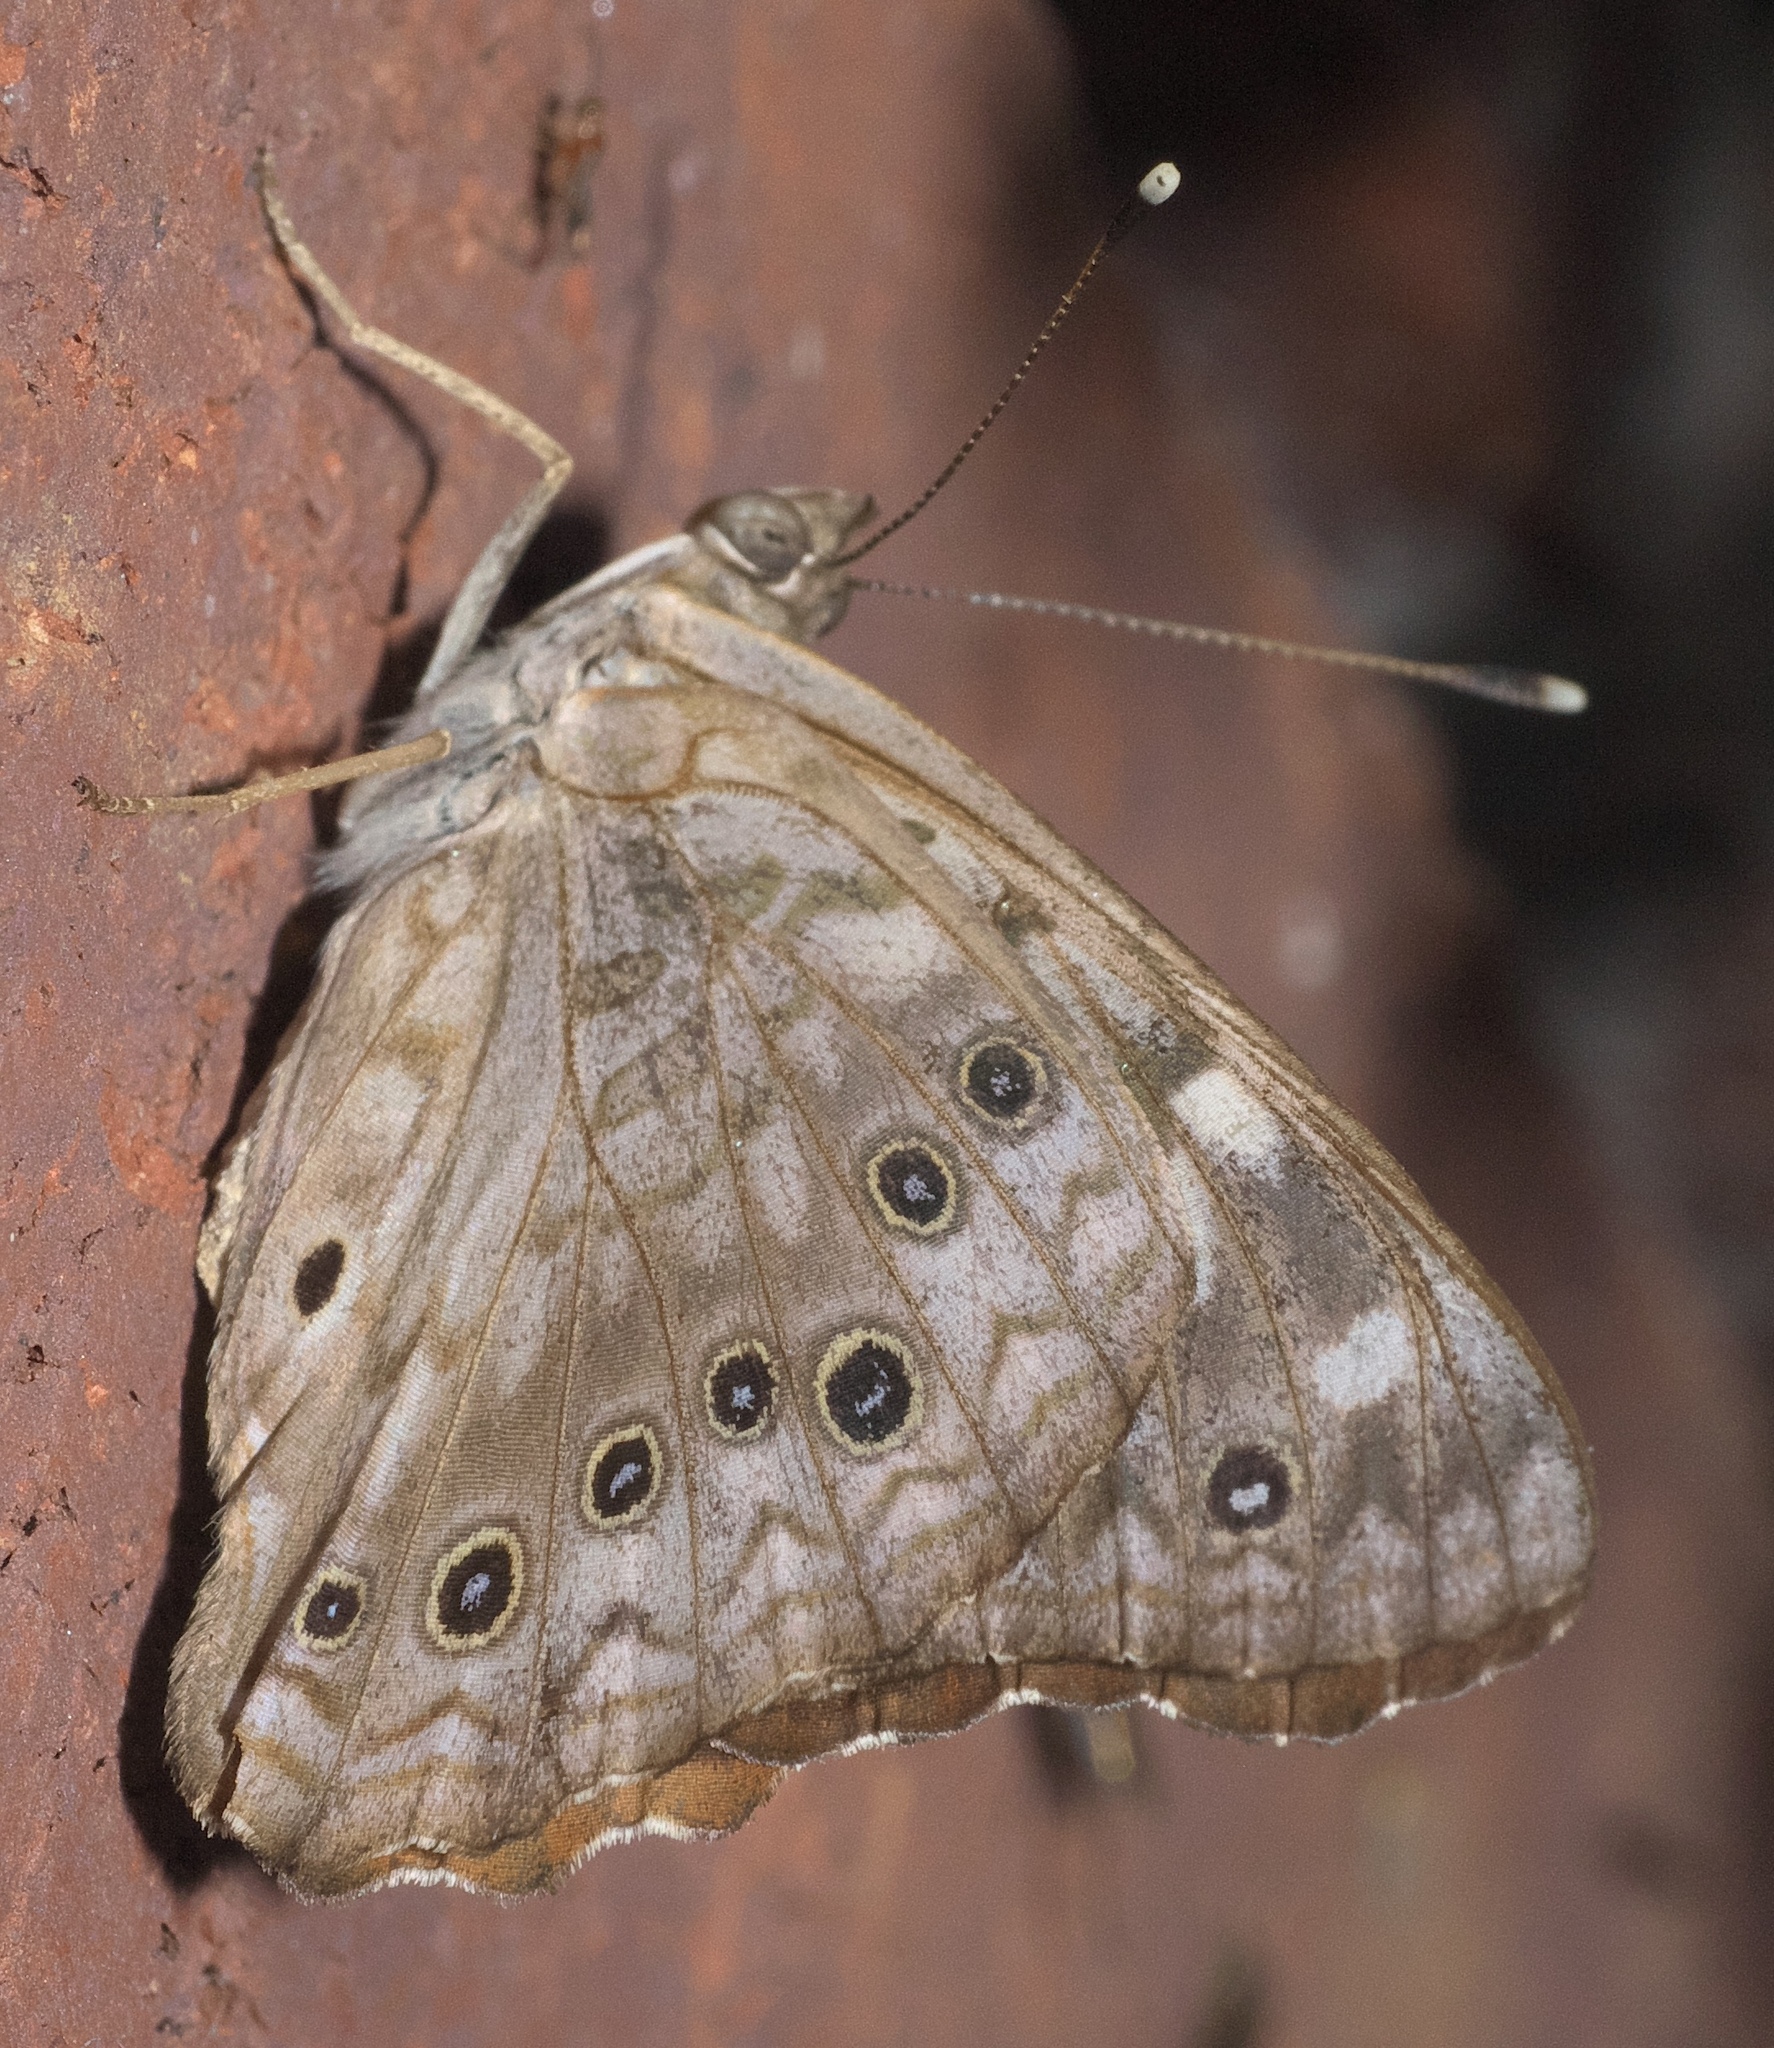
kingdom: Animalia
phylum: Arthropoda
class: Insecta
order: Lepidoptera
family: Nymphalidae
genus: Asterocampa
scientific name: Asterocampa celtis
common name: Hackberry emperor
